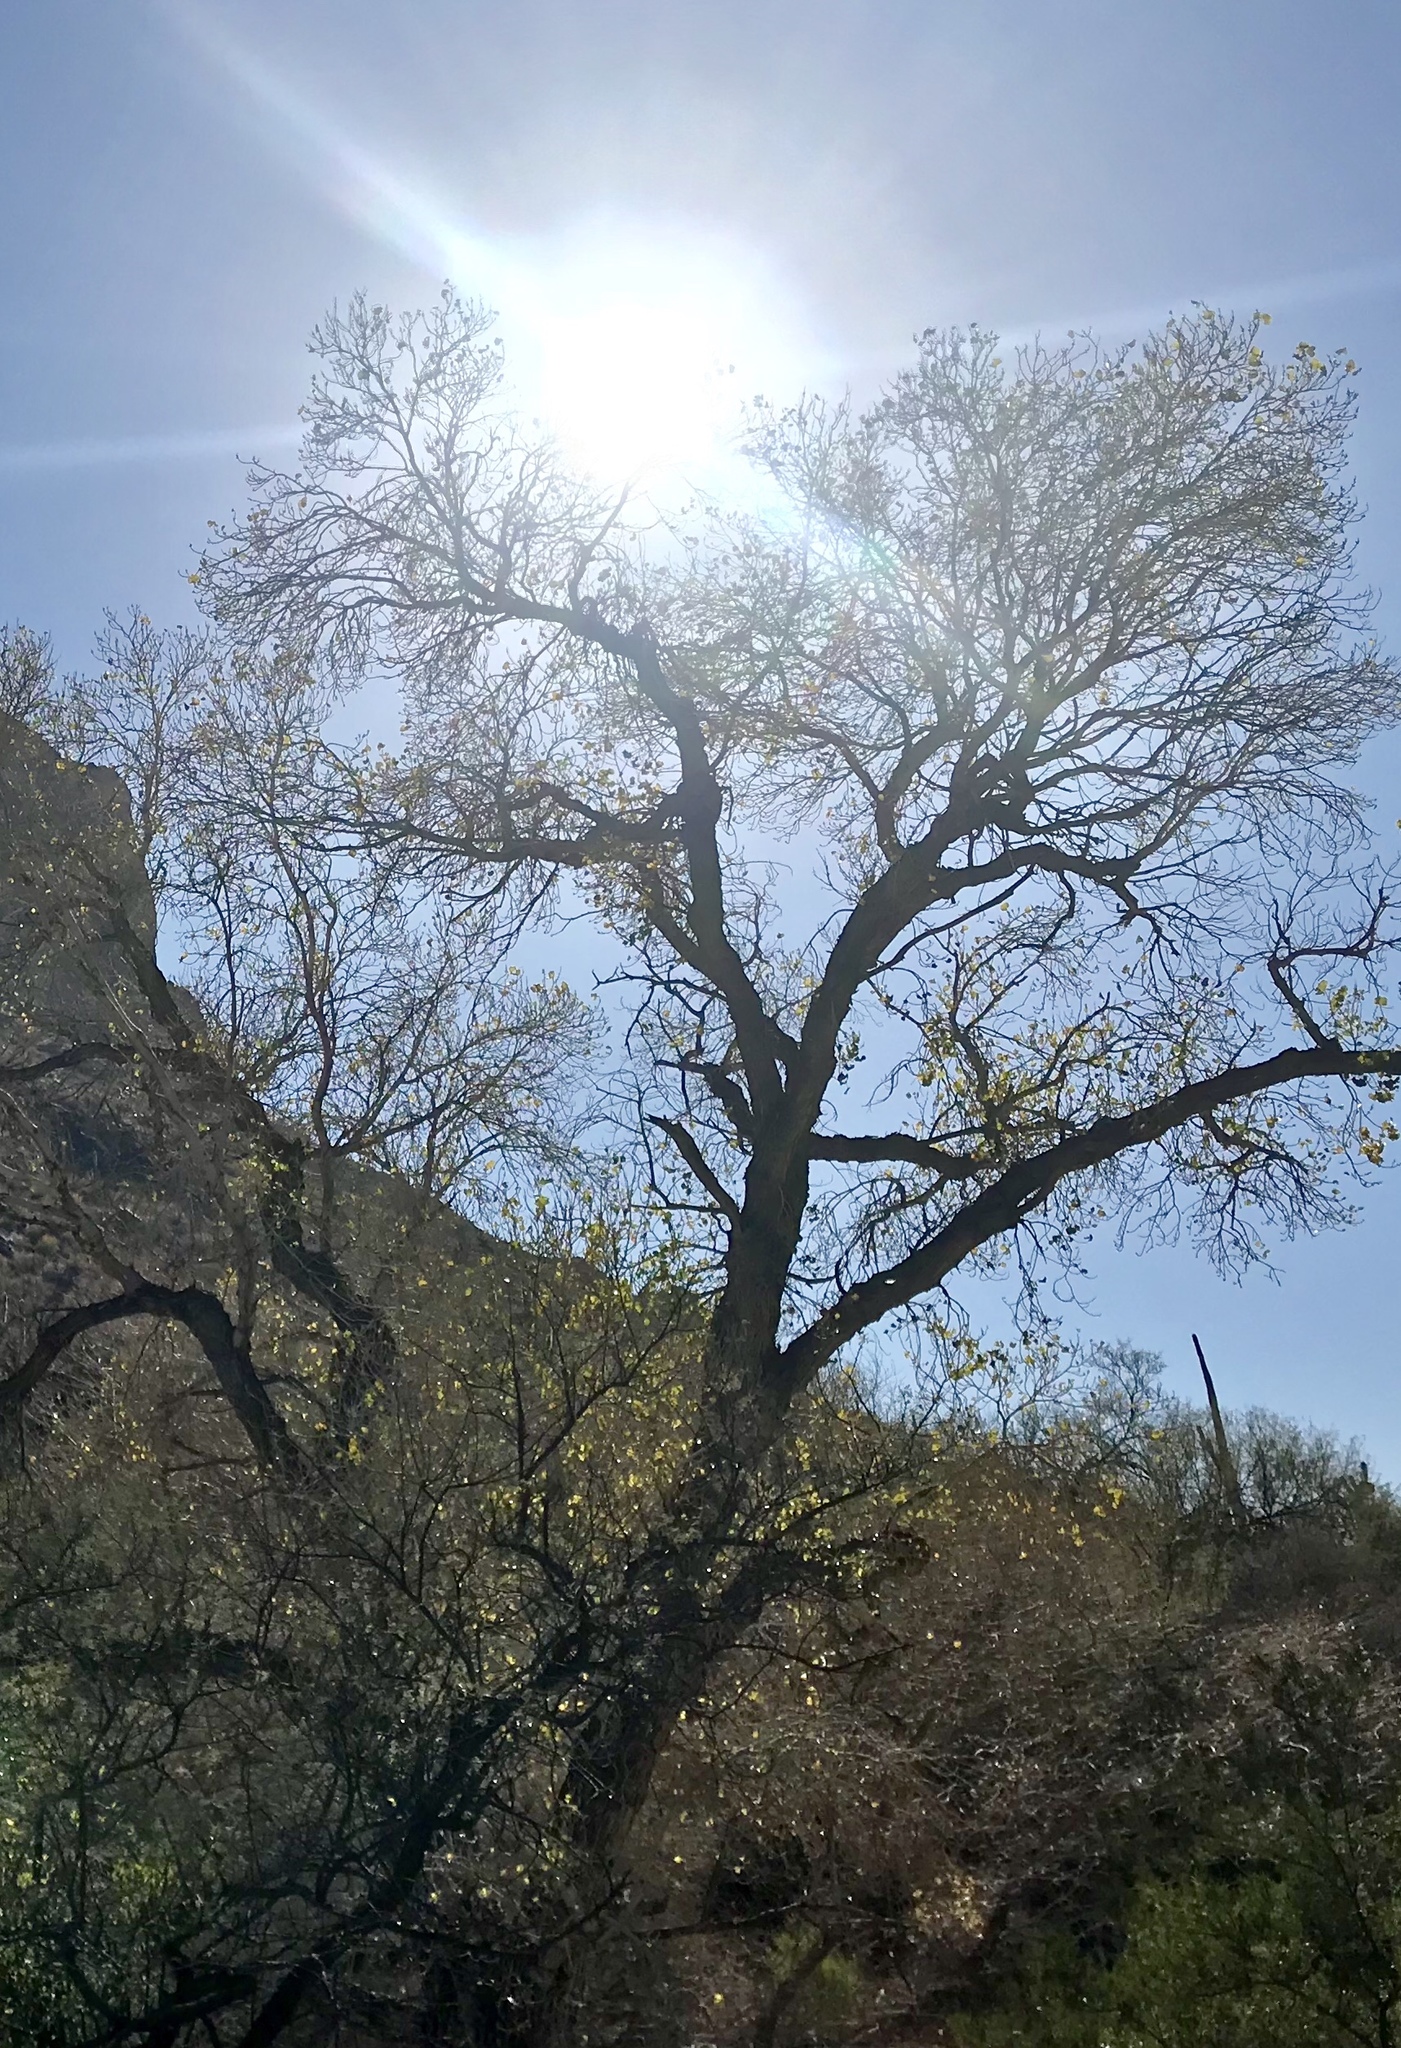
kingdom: Plantae
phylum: Tracheophyta
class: Magnoliopsida
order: Malpighiales
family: Salicaceae
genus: Populus
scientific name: Populus fremontii
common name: Fremont's cottonwood
